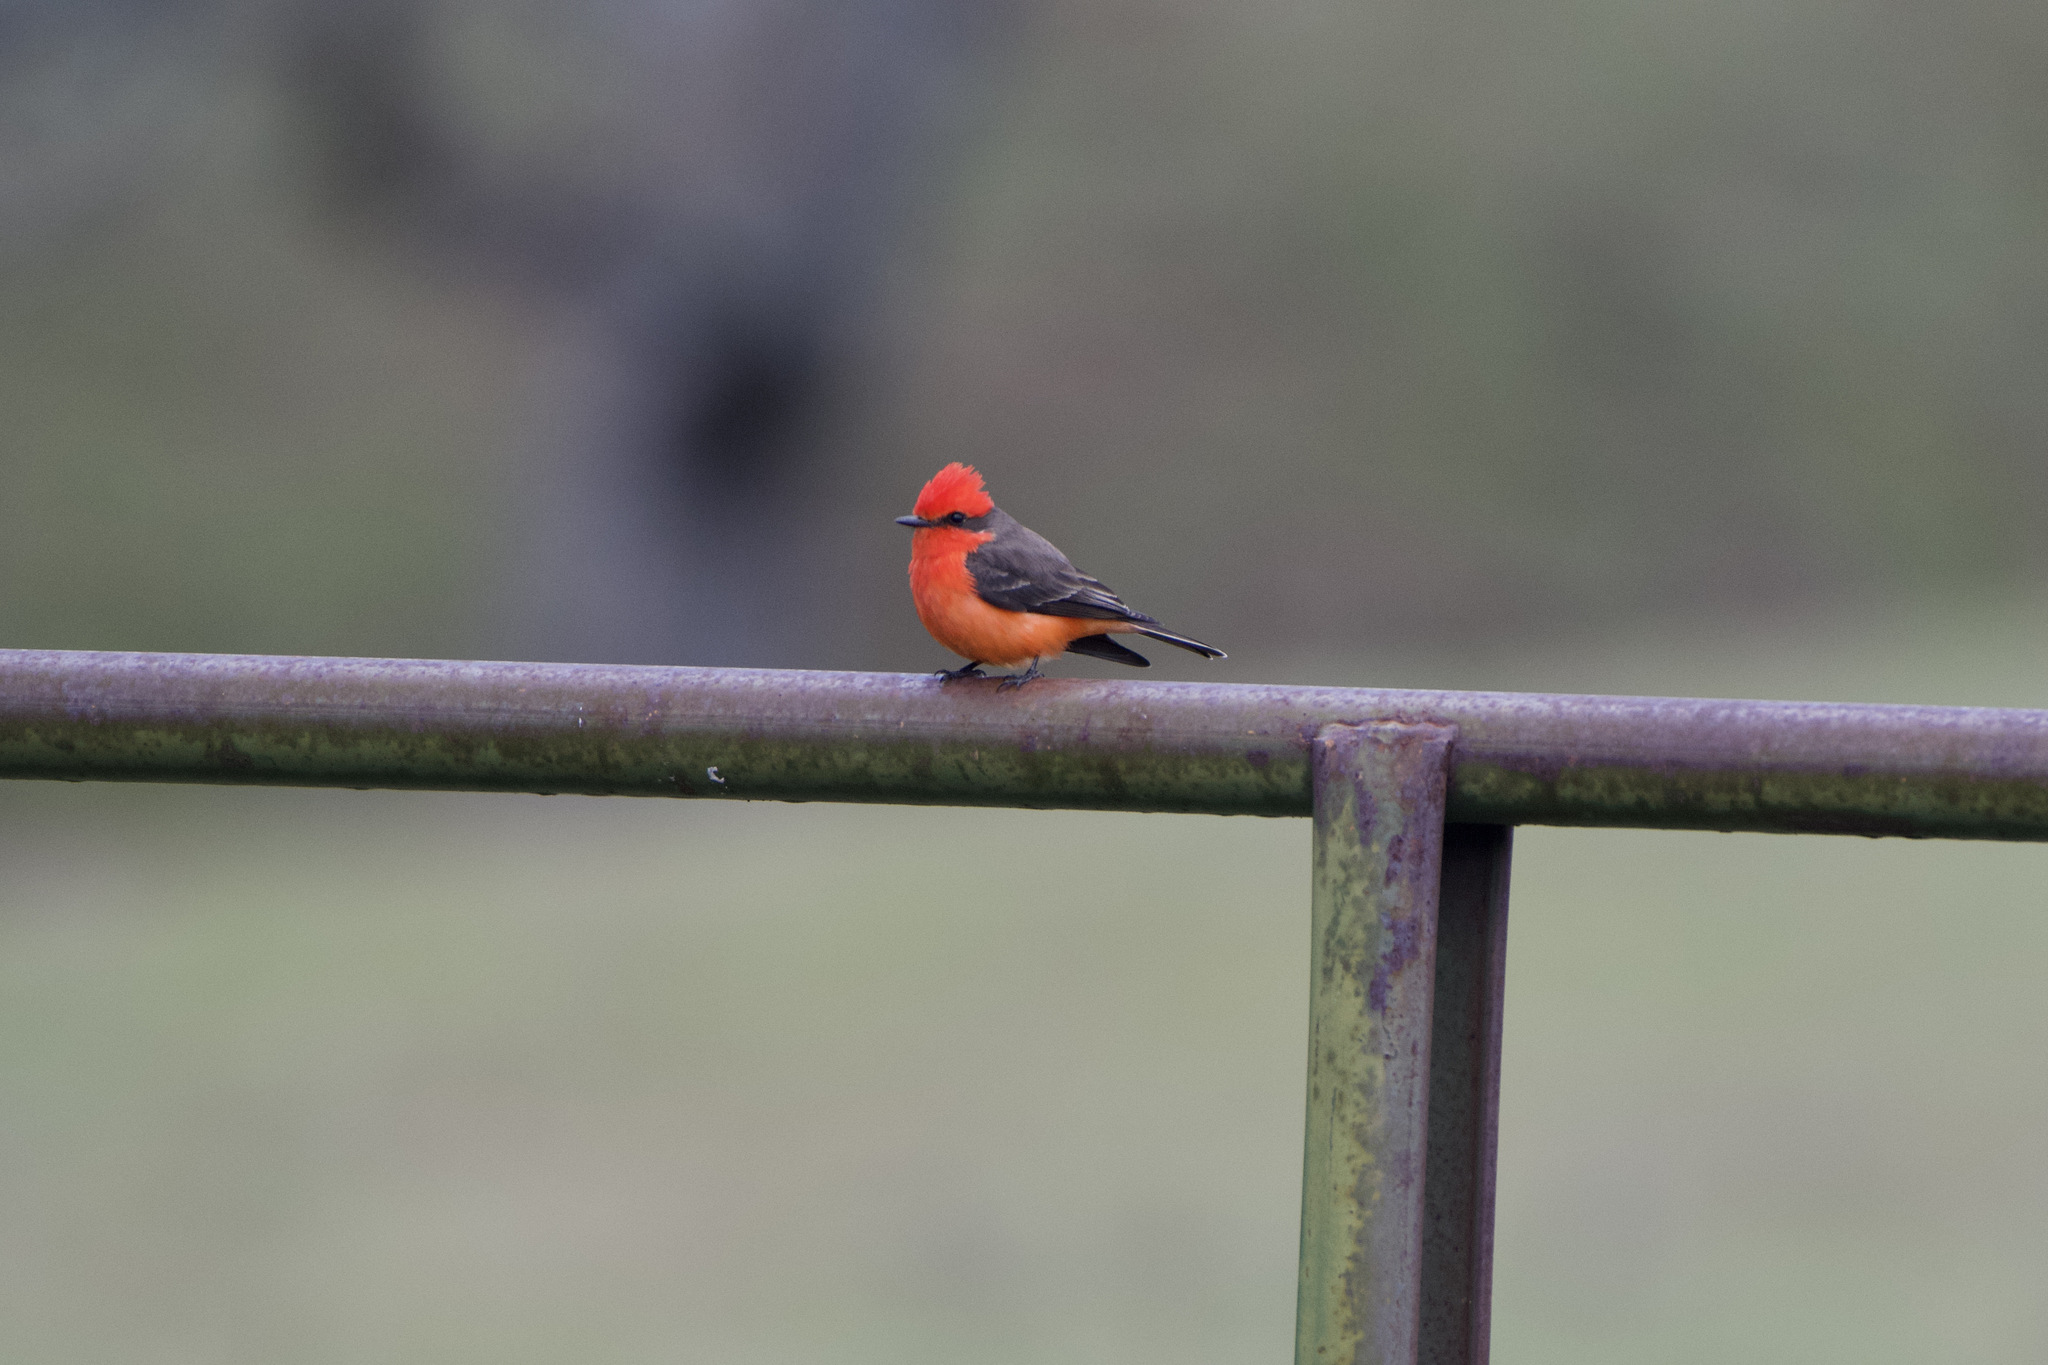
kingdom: Animalia
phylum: Chordata
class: Aves
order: Passeriformes
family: Tyrannidae
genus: Pyrocephalus
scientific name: Pyrocephalus rubinus
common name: Vermilion flycatcher
